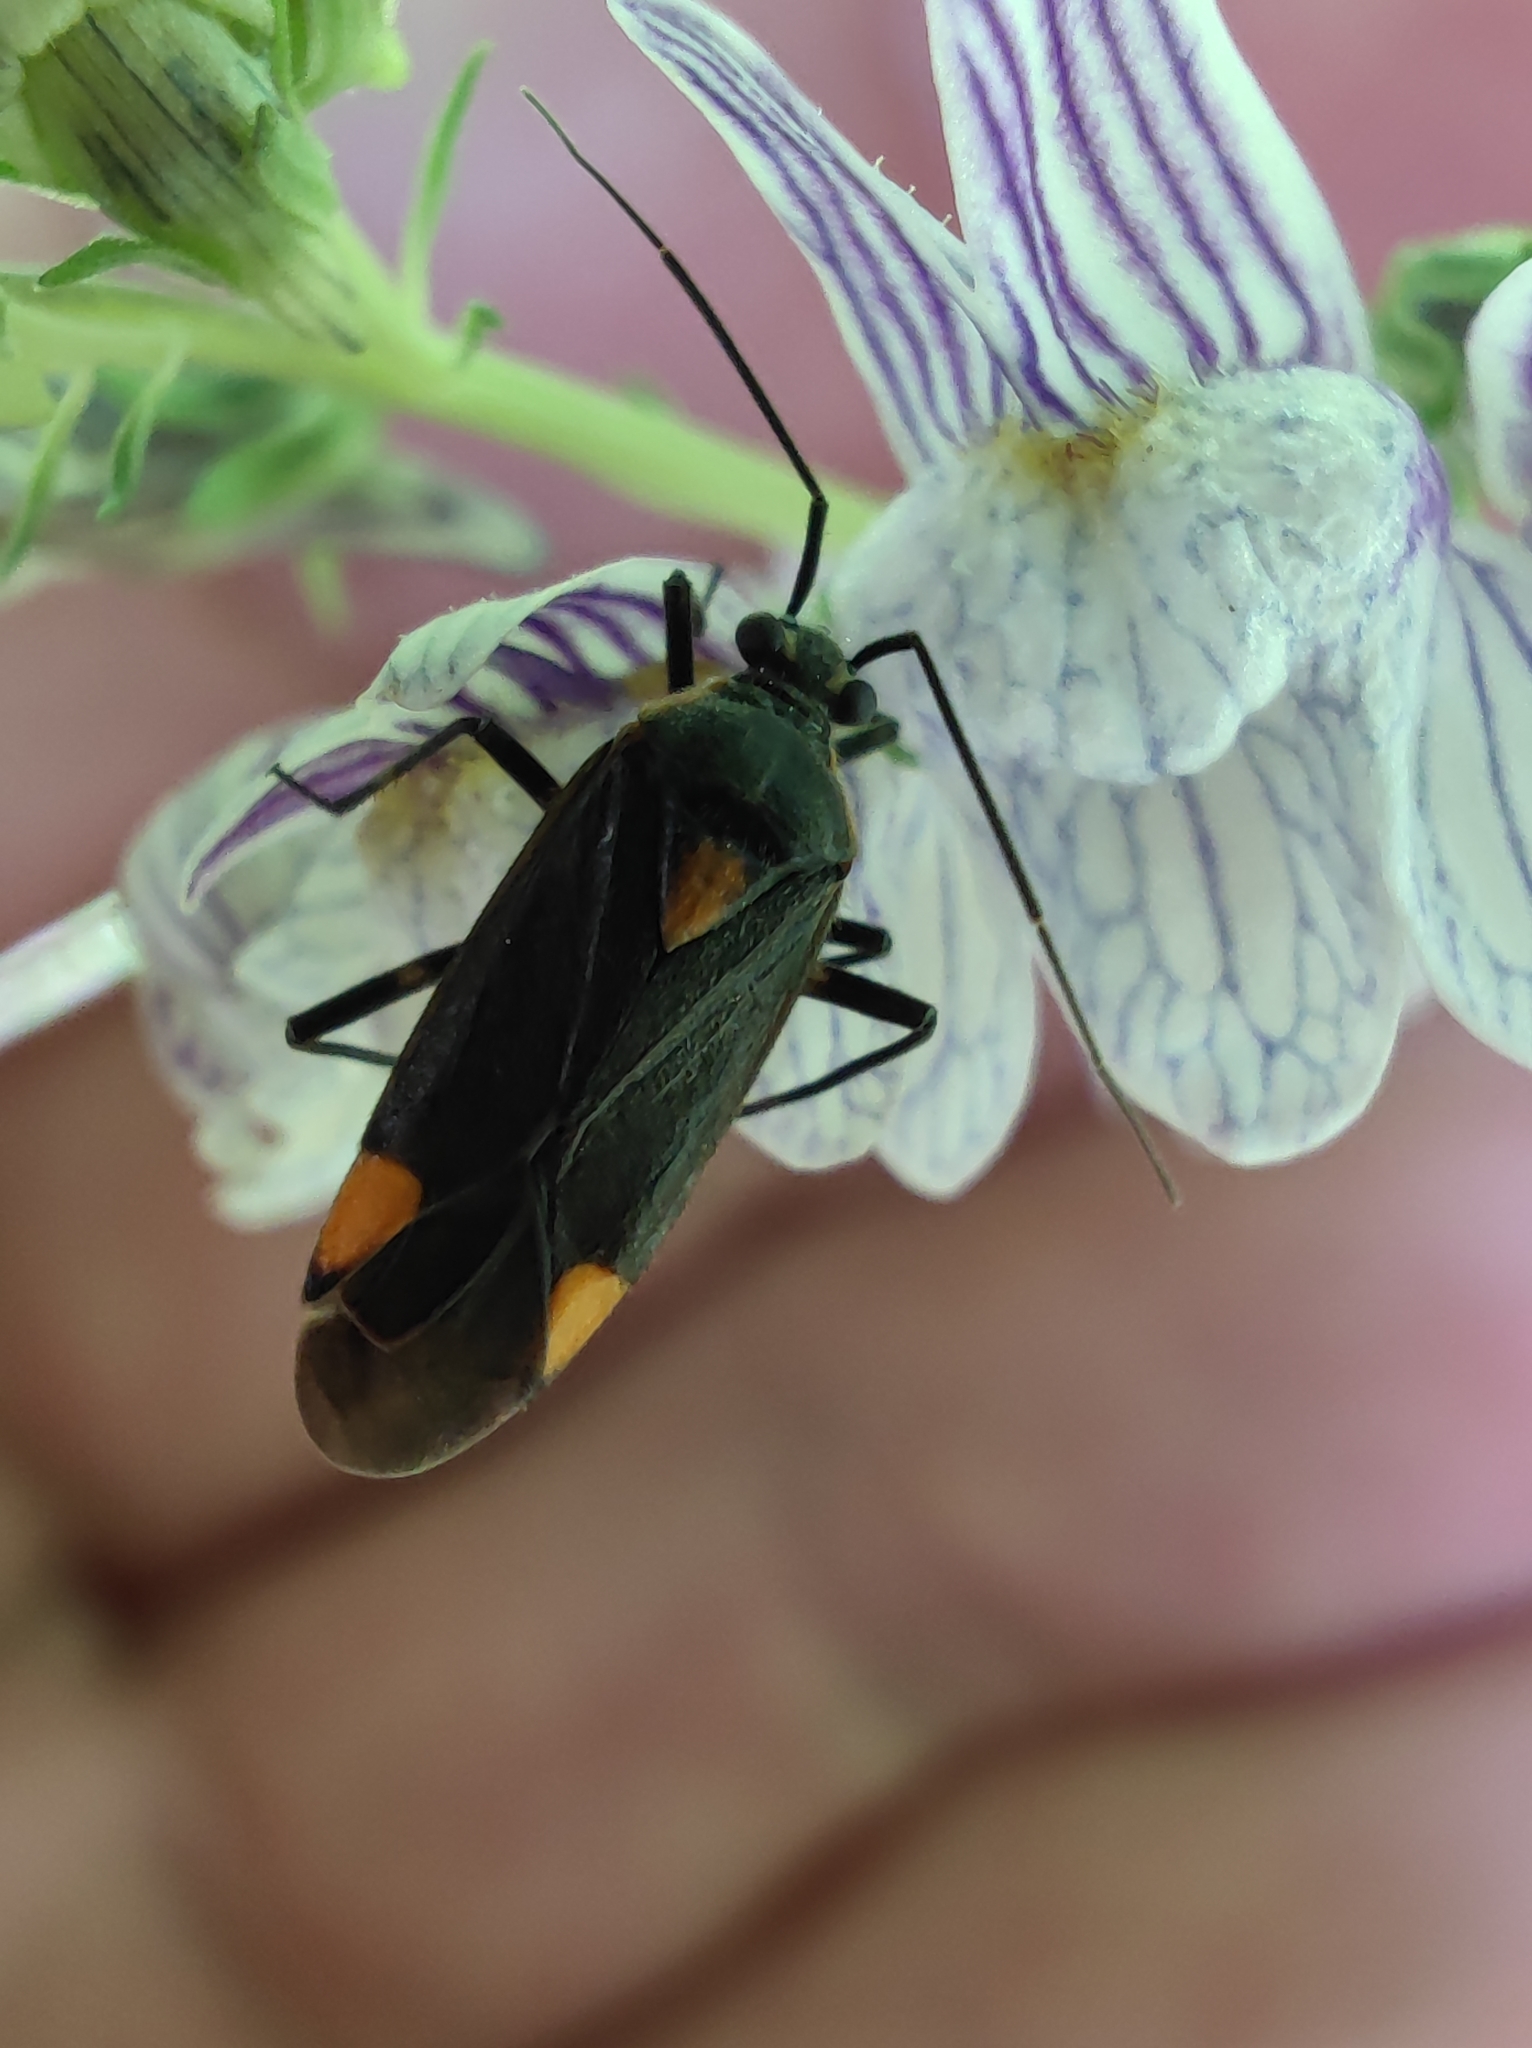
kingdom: Animalia
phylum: Arthropoda
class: Insecta
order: Hemiptera
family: Miridae
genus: Capsodes
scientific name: Capsodes flavomarginatus
